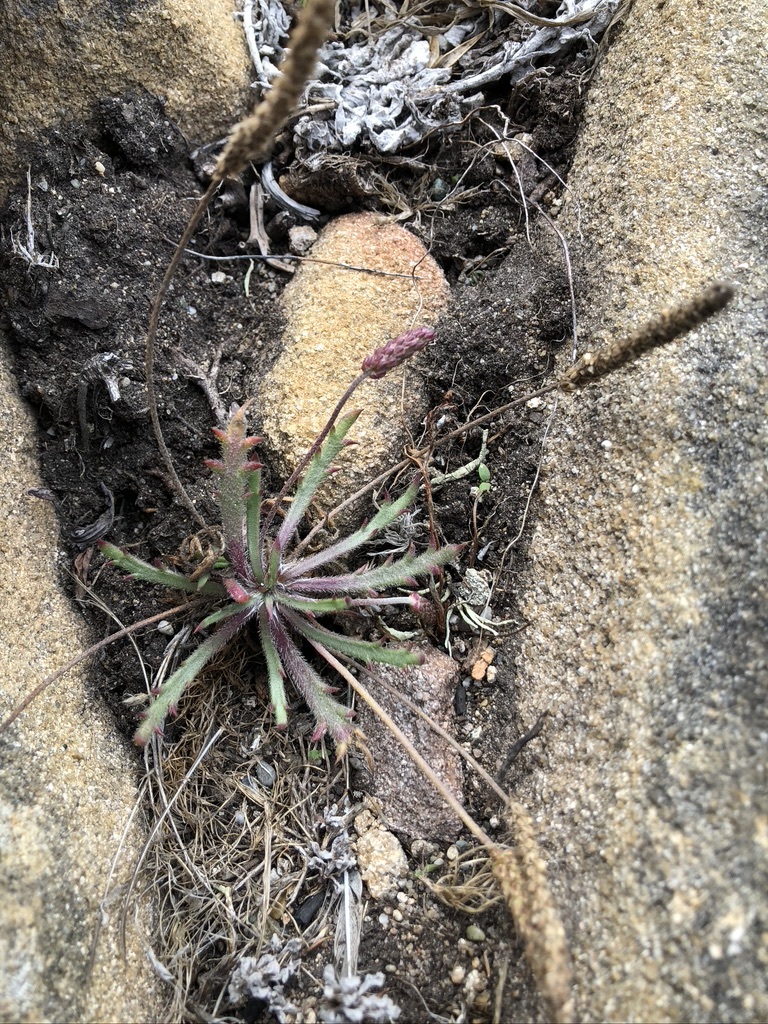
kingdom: Plantae
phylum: Tracheophyta
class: Magnoliopsida
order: Lamiales
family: Plantaginaceae
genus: Plantago
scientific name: Plantago coronopus
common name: Buck's-horn plantain
